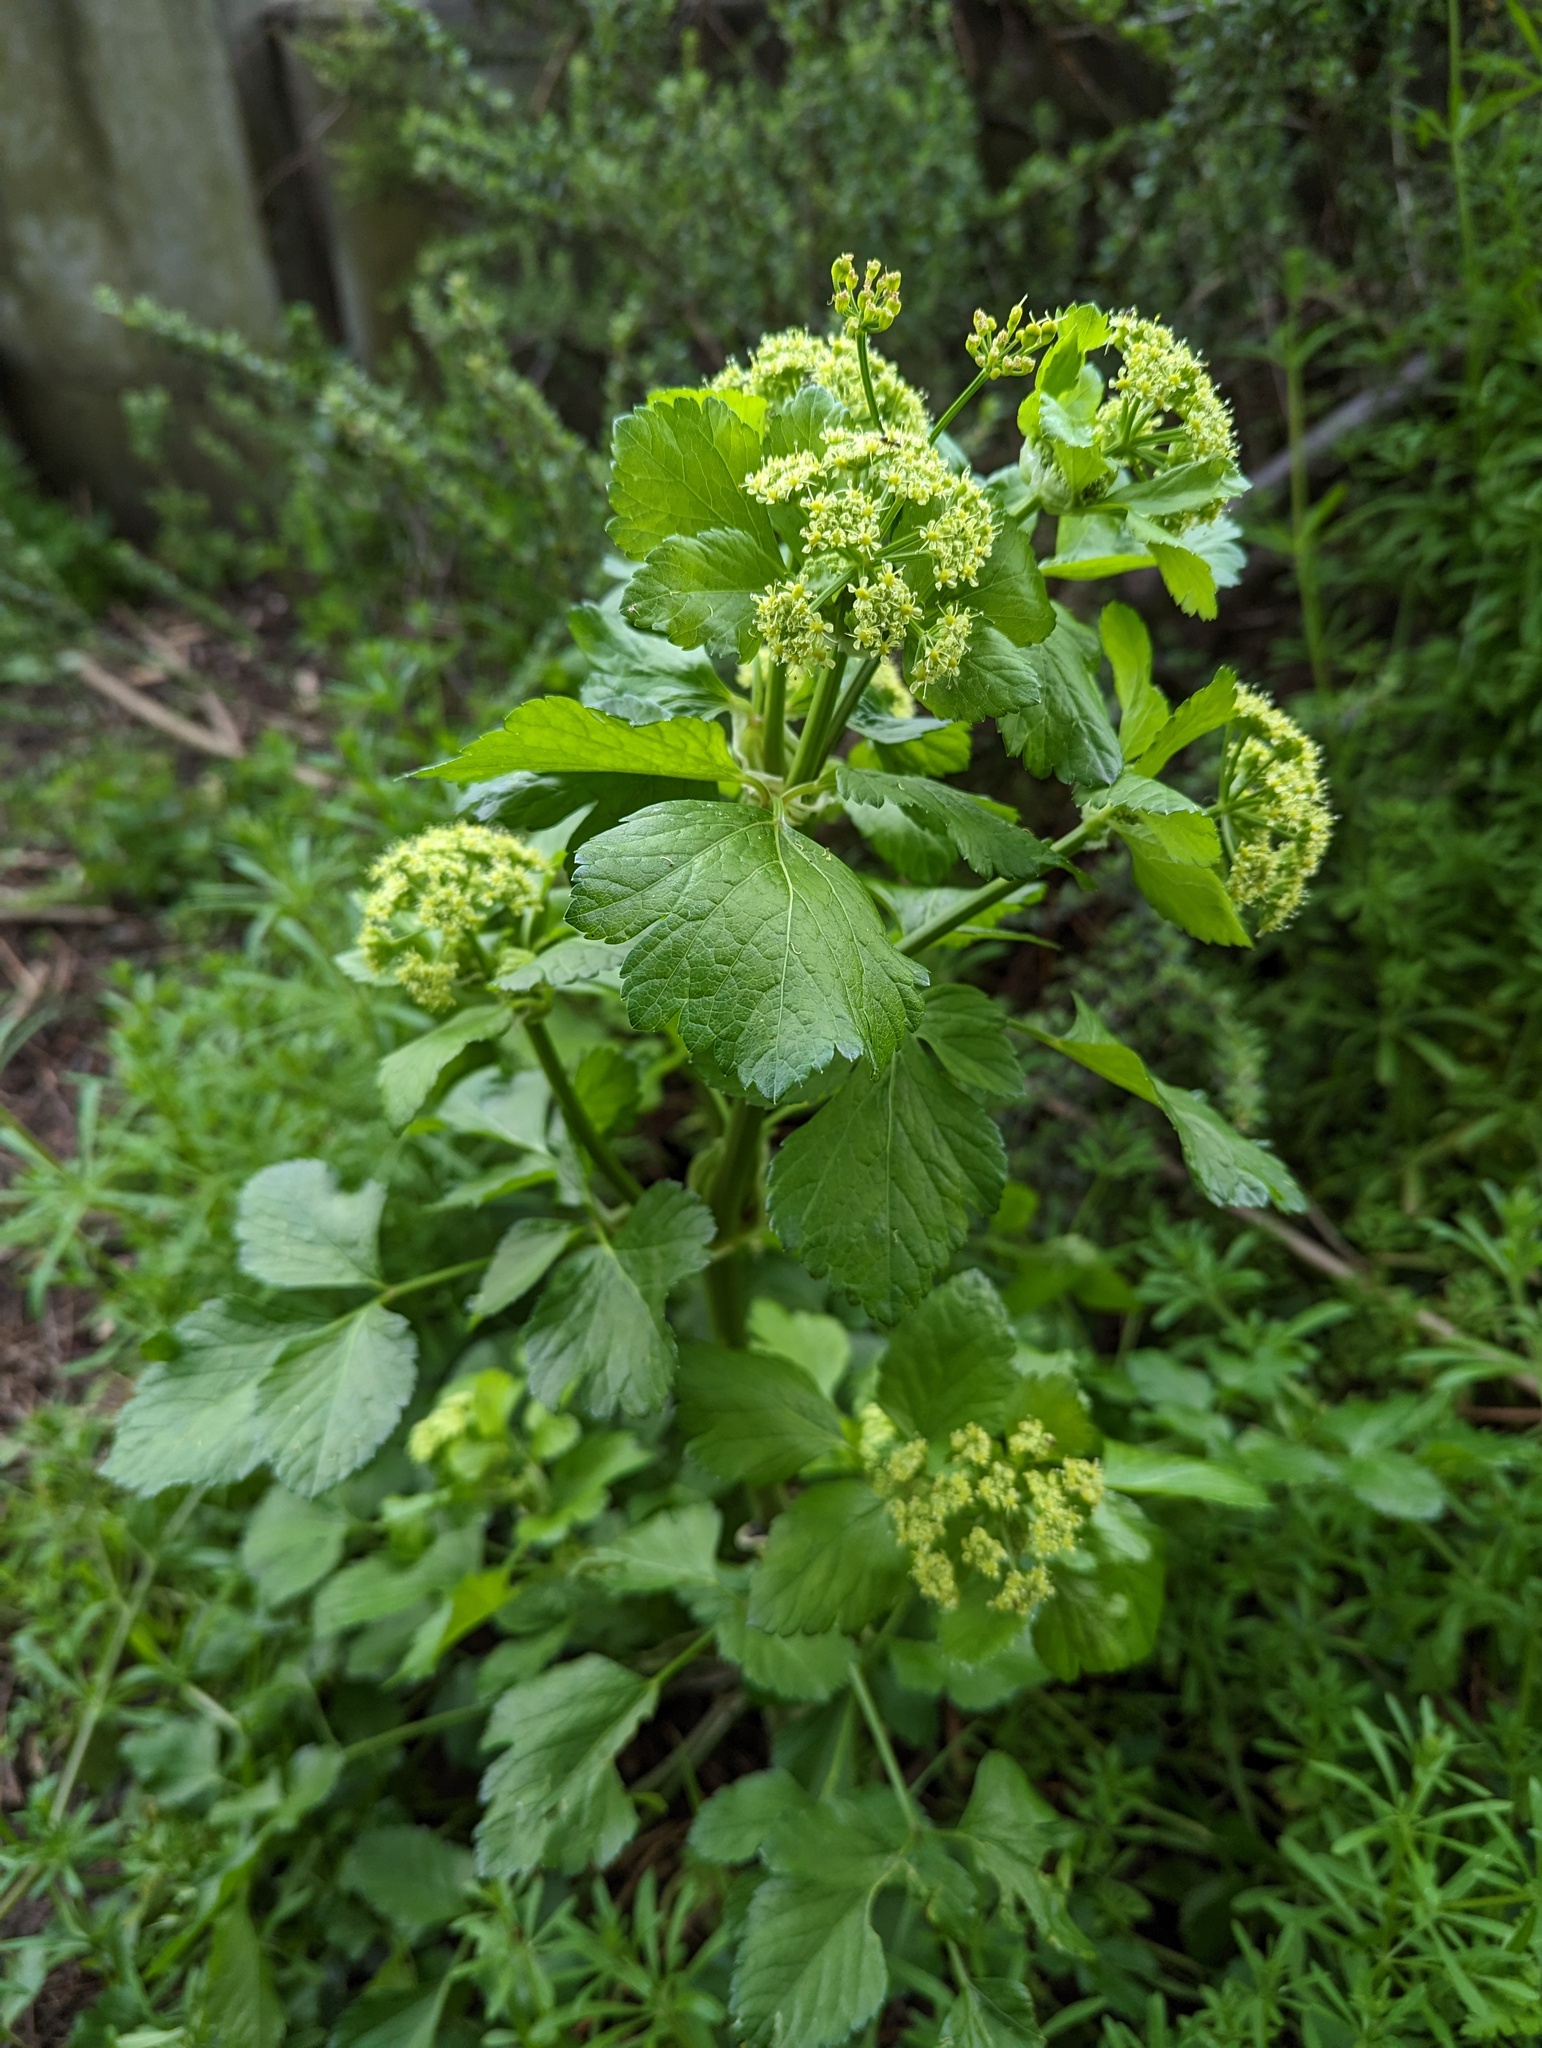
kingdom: Plantae
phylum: Tracheophyta
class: Magnoliopsida
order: Apiales
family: Apiaceae
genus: Smyrnium
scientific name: Smyrnium olusatrum
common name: Alexanders
